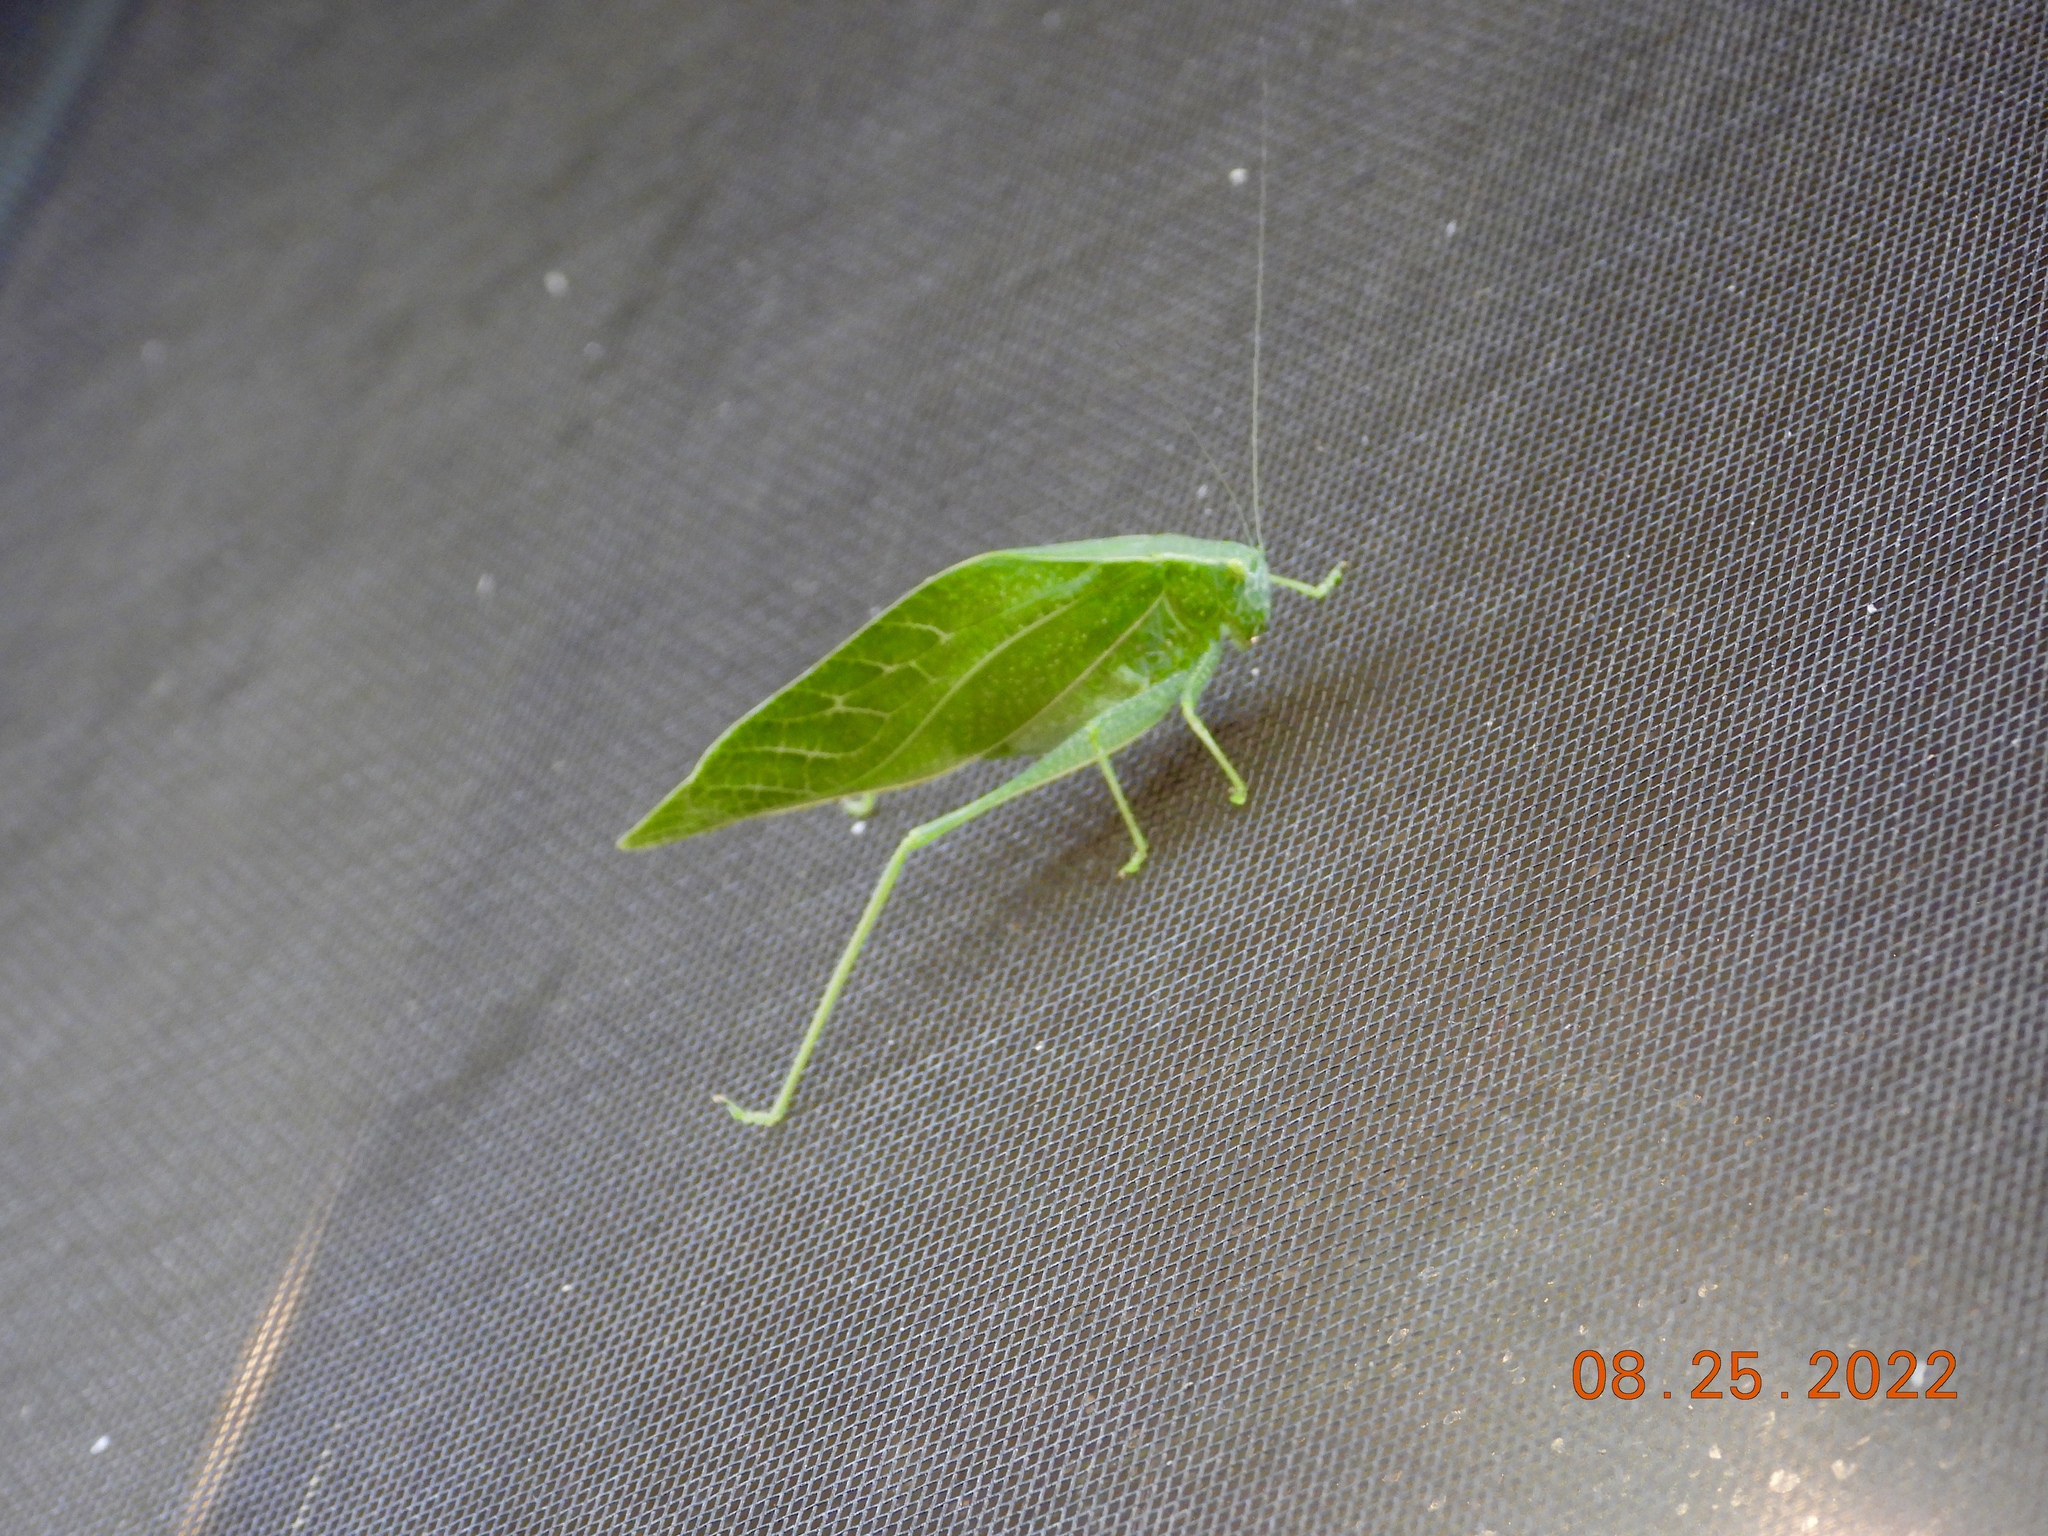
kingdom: Animalia
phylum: Arthropoda
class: Insecta
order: Orthoptera
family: Tettigoniidae
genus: Microcentrum
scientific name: Microcentrum rhombifolium
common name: Broad-winged katydid
